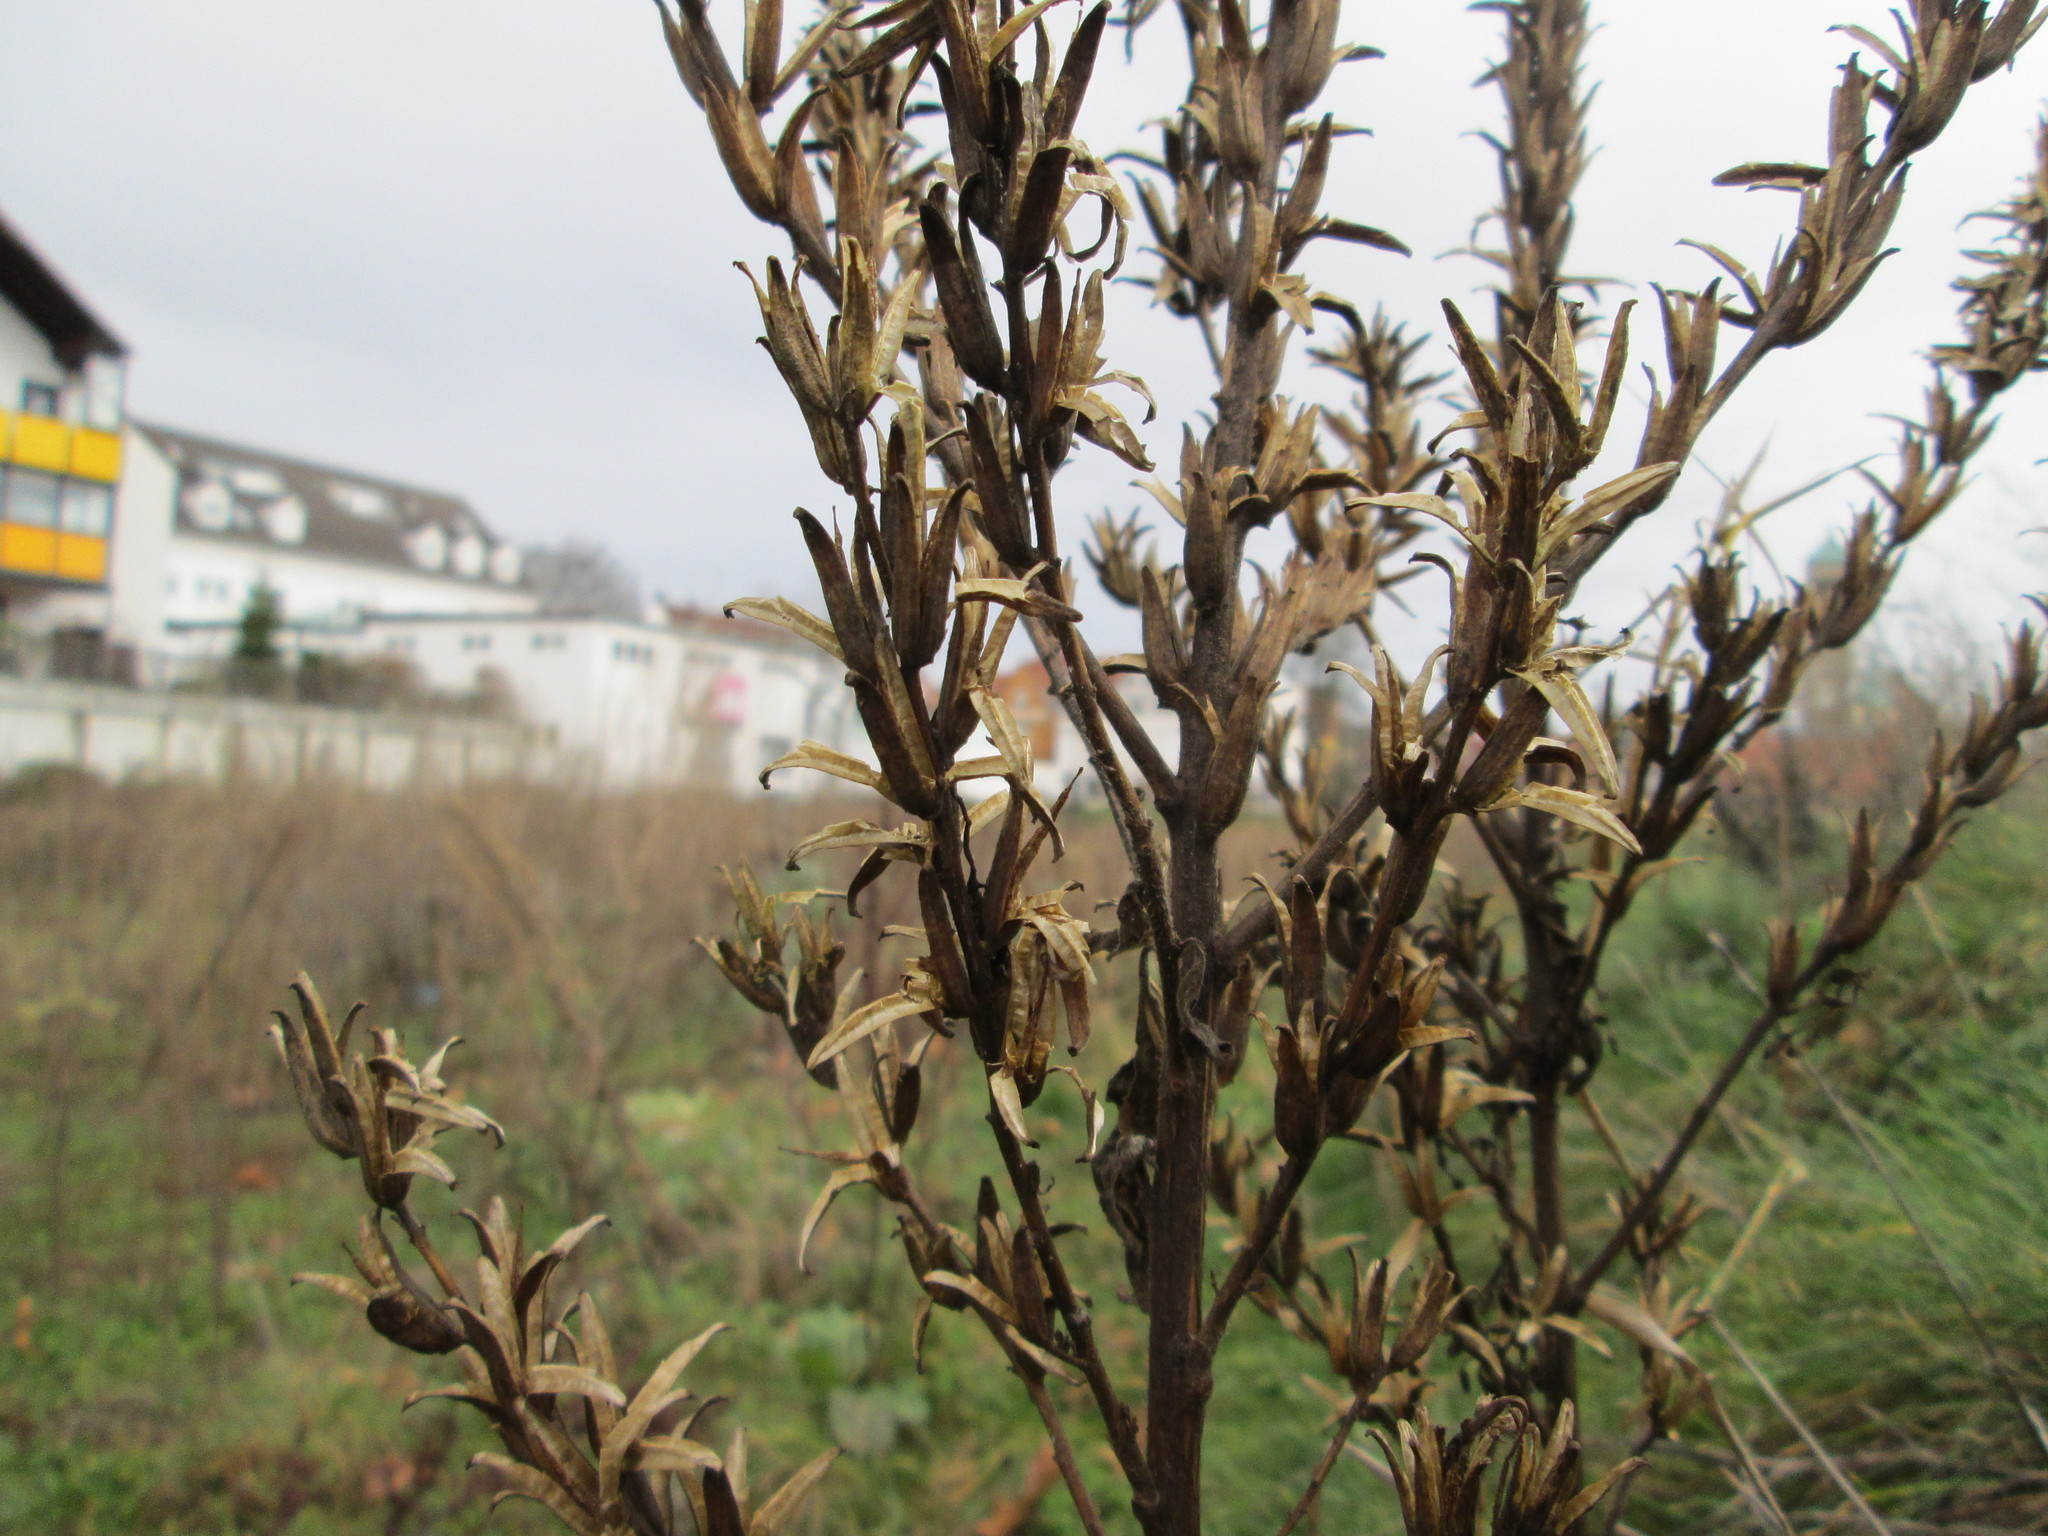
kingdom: Plantae
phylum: Tracheophyta
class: Magnoliopsida
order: Myrtales
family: Onagraceae
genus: Oenothera
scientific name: Oenothera biennis
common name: Common evening-primrose
